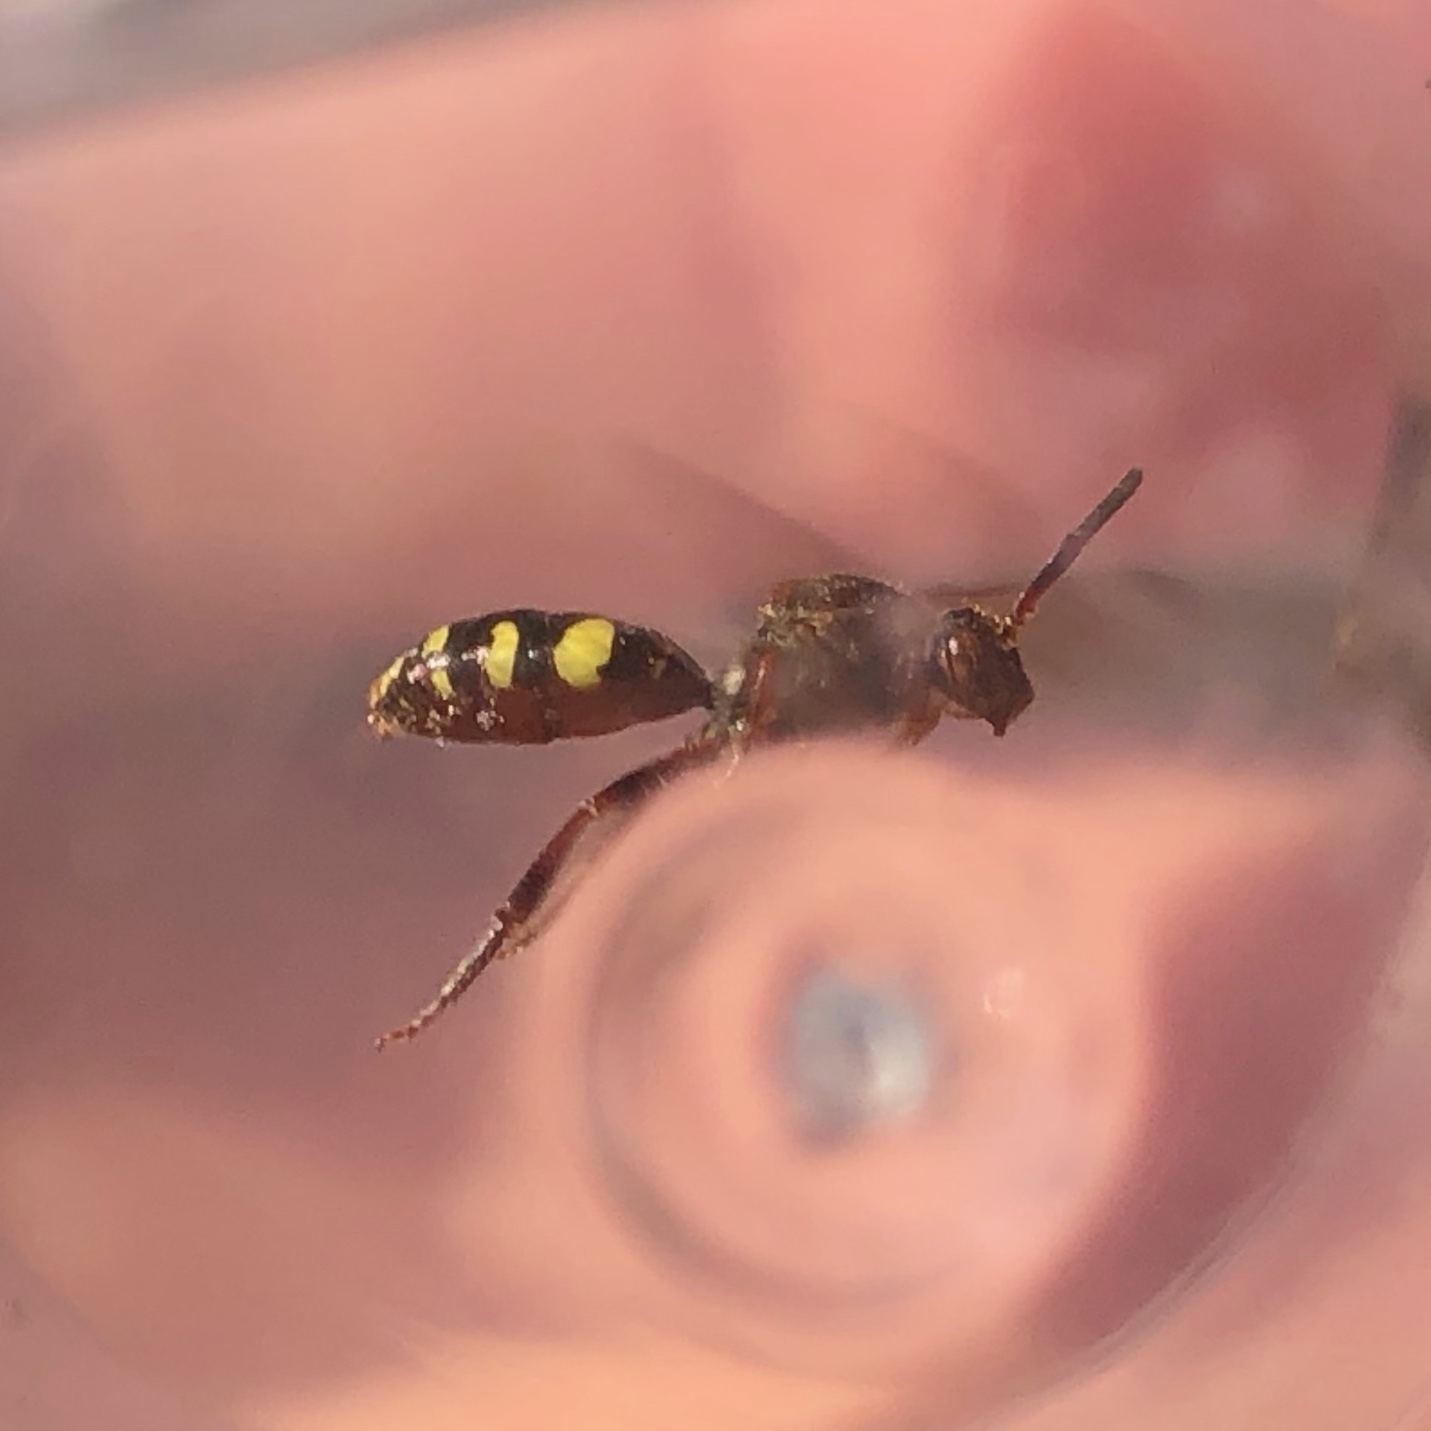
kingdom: Animalia
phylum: Arthropoda
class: Insecta
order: Hymenoptera
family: Apidae
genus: Nomada
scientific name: Nomada
